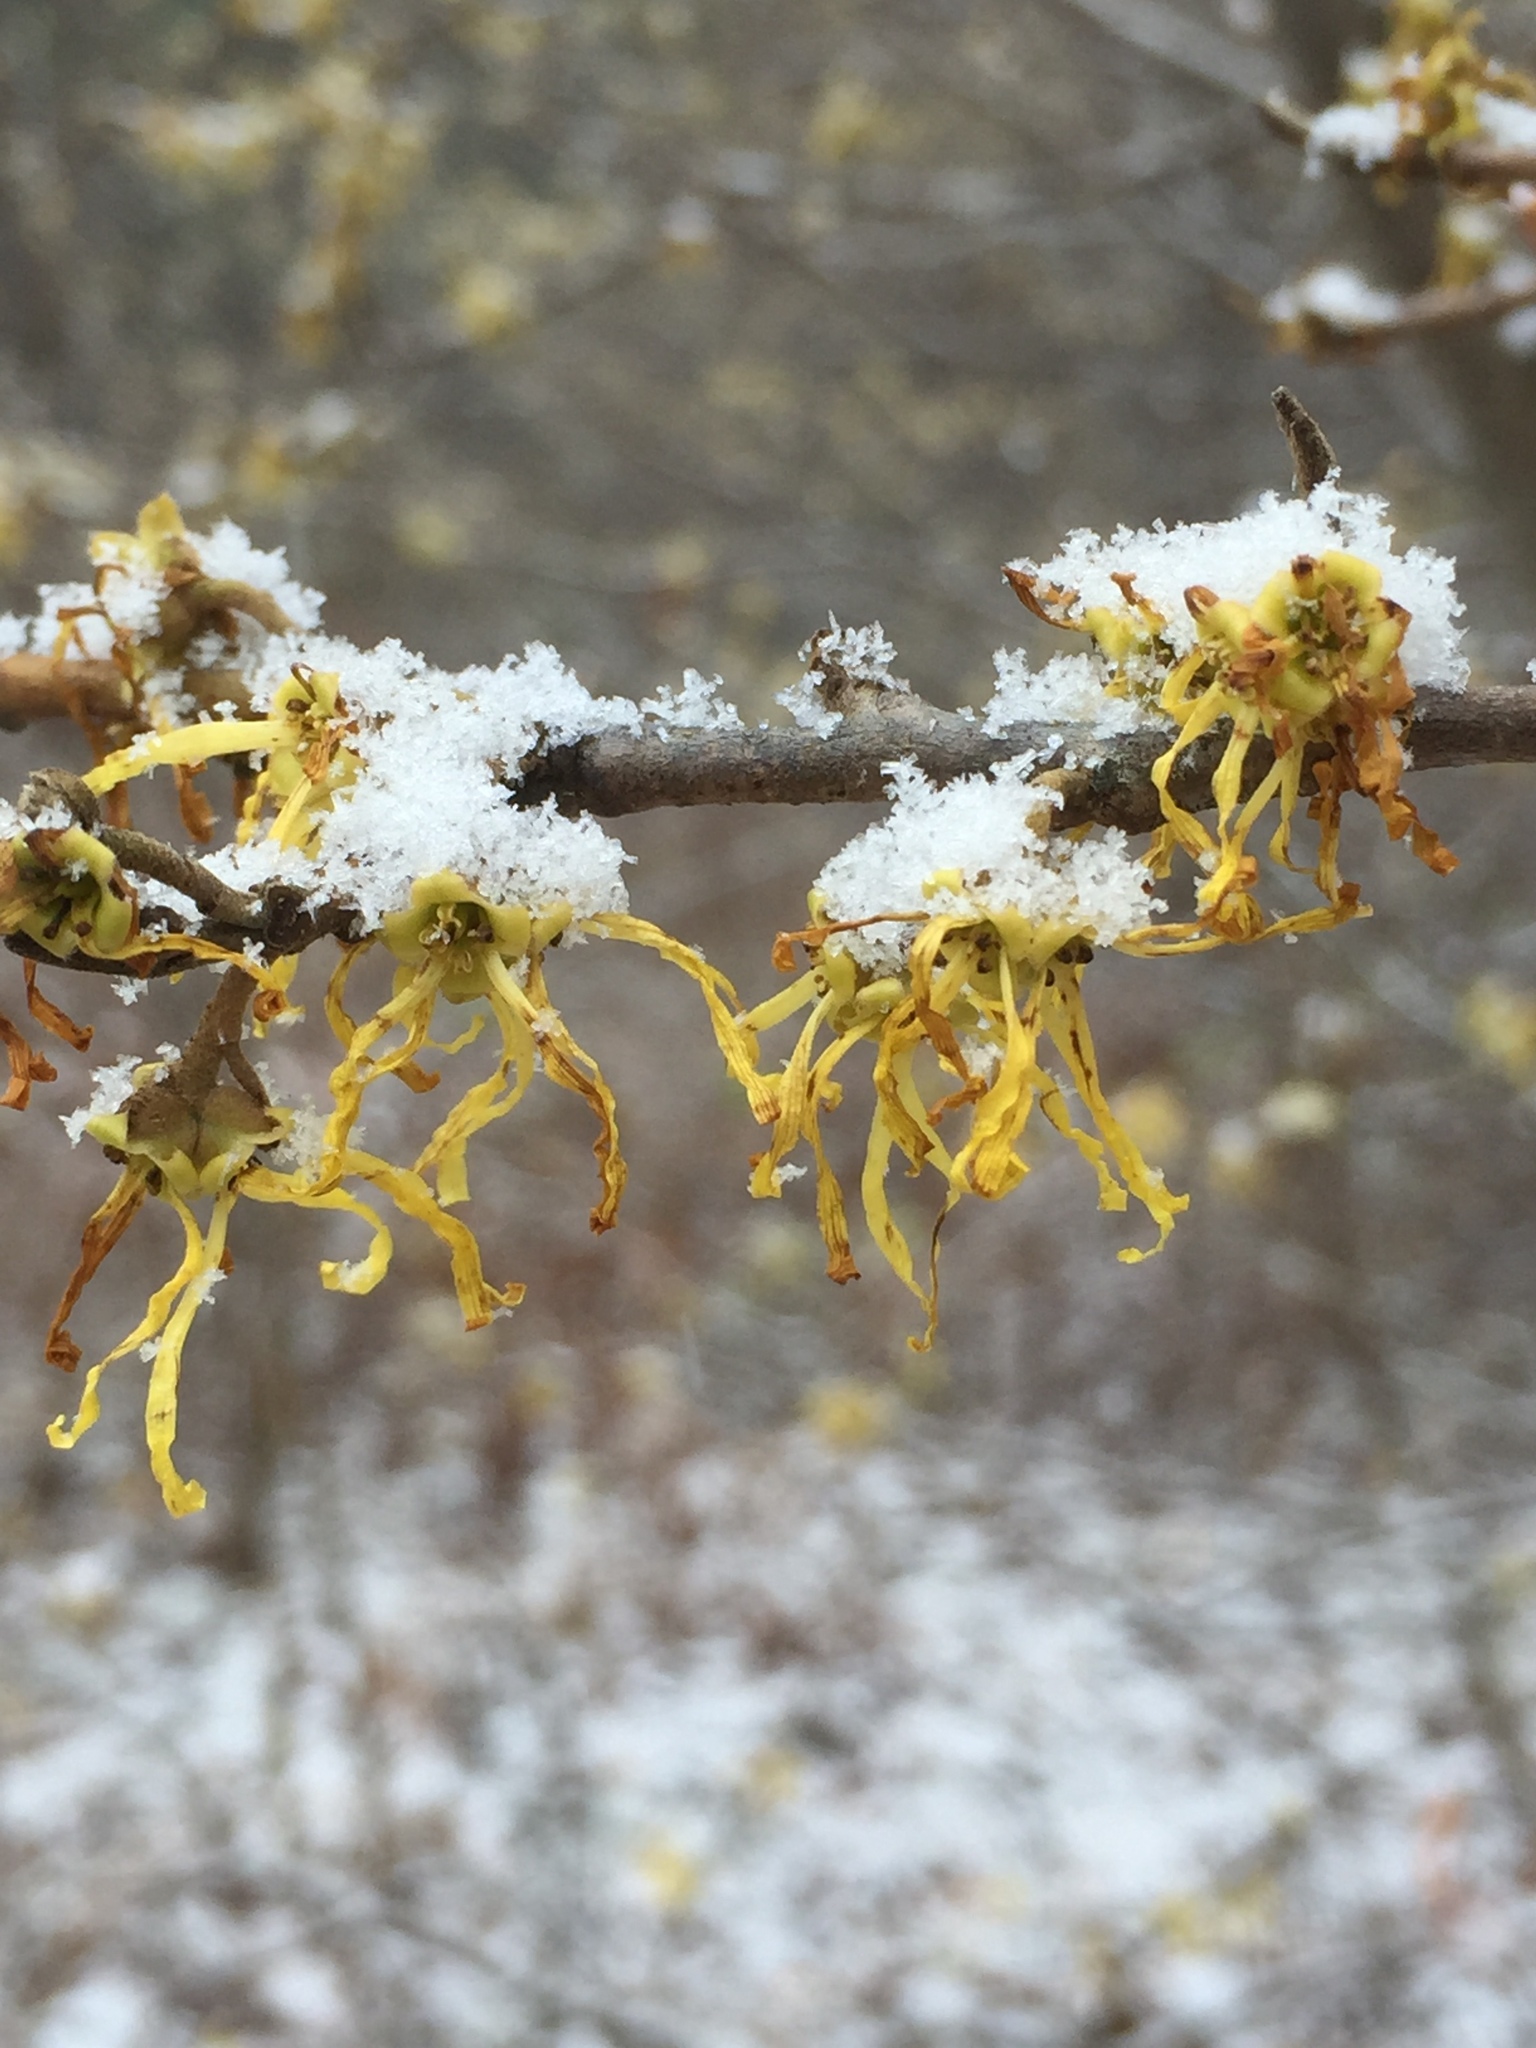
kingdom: Plantae
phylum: Tracheophyta
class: Magnoliopsida
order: Saxifragales
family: Hamamelidaceae
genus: Hamamelis
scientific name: Hamamelis virginiana
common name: Witch-hazel
